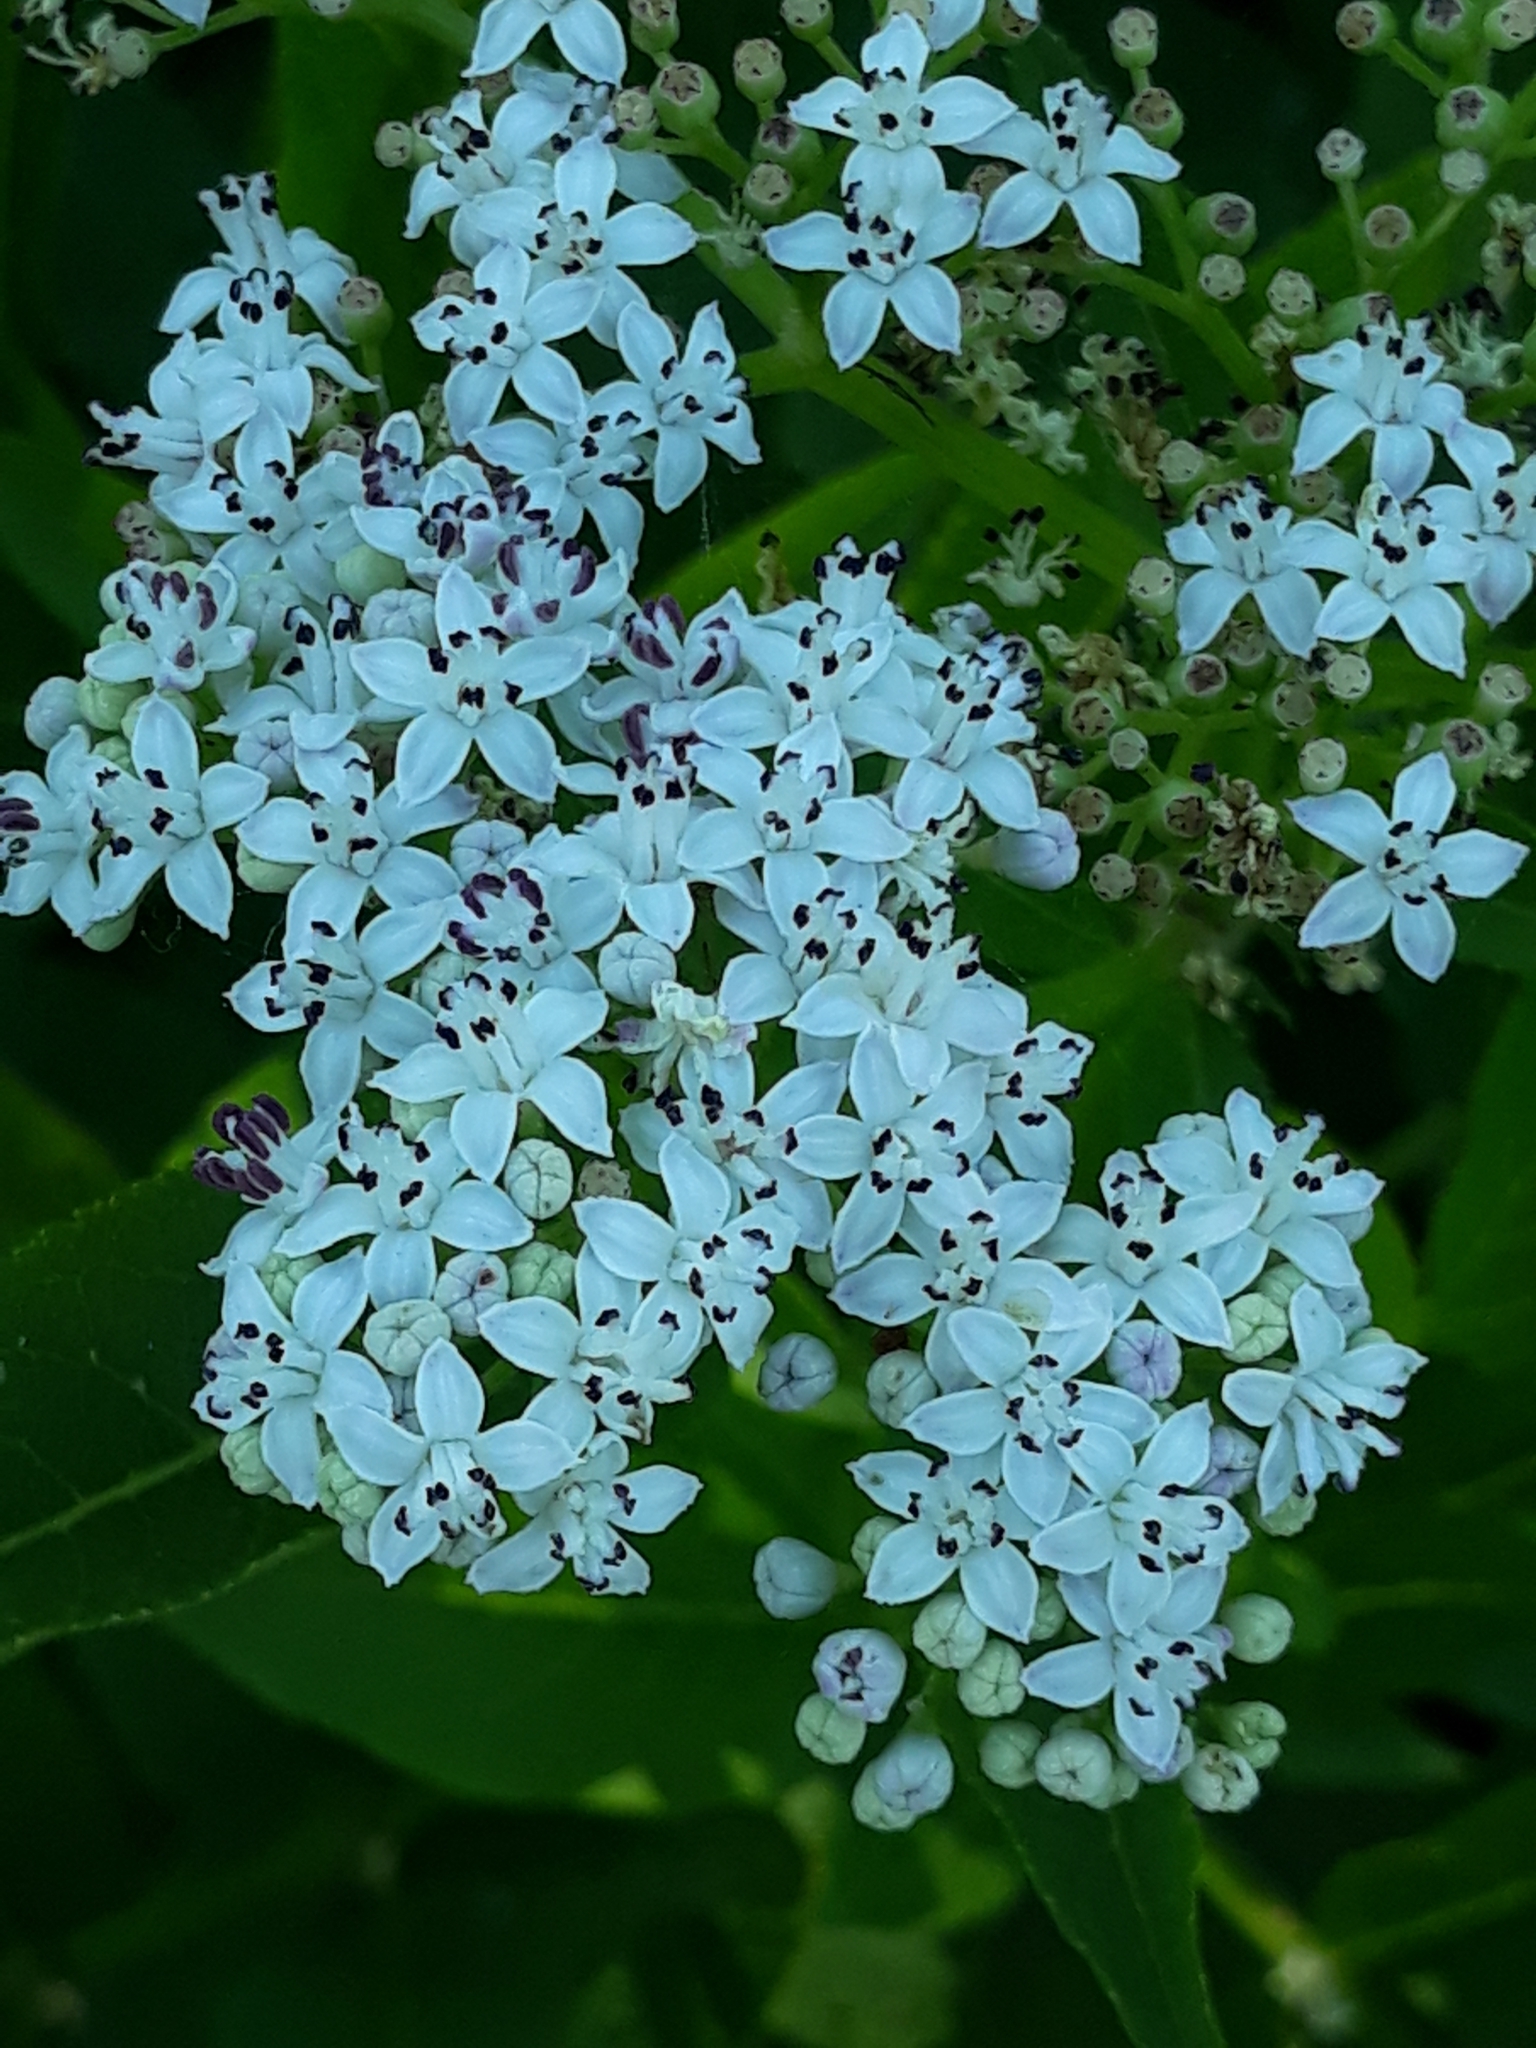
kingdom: Plantae
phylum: Tracheophyta
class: Magnoliopsida
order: Dipsacales
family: Viburnaceae
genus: Sambucus
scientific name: Sambucus ebulus
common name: Dwarf elder
